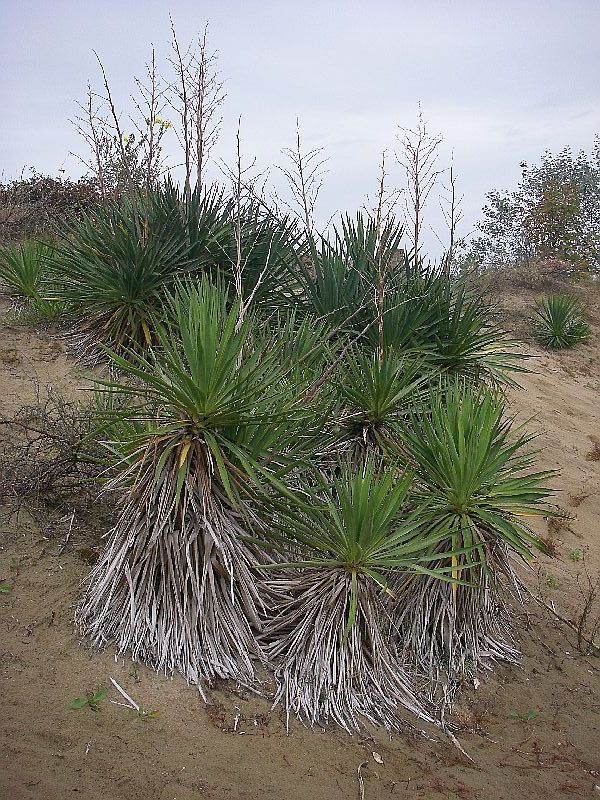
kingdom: Plantae
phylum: Tracheophyta
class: Liliopsida
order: Asparagales
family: Asparagaceae
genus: Yucca
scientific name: Yucca gloriosa
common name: Spanish-dagger
